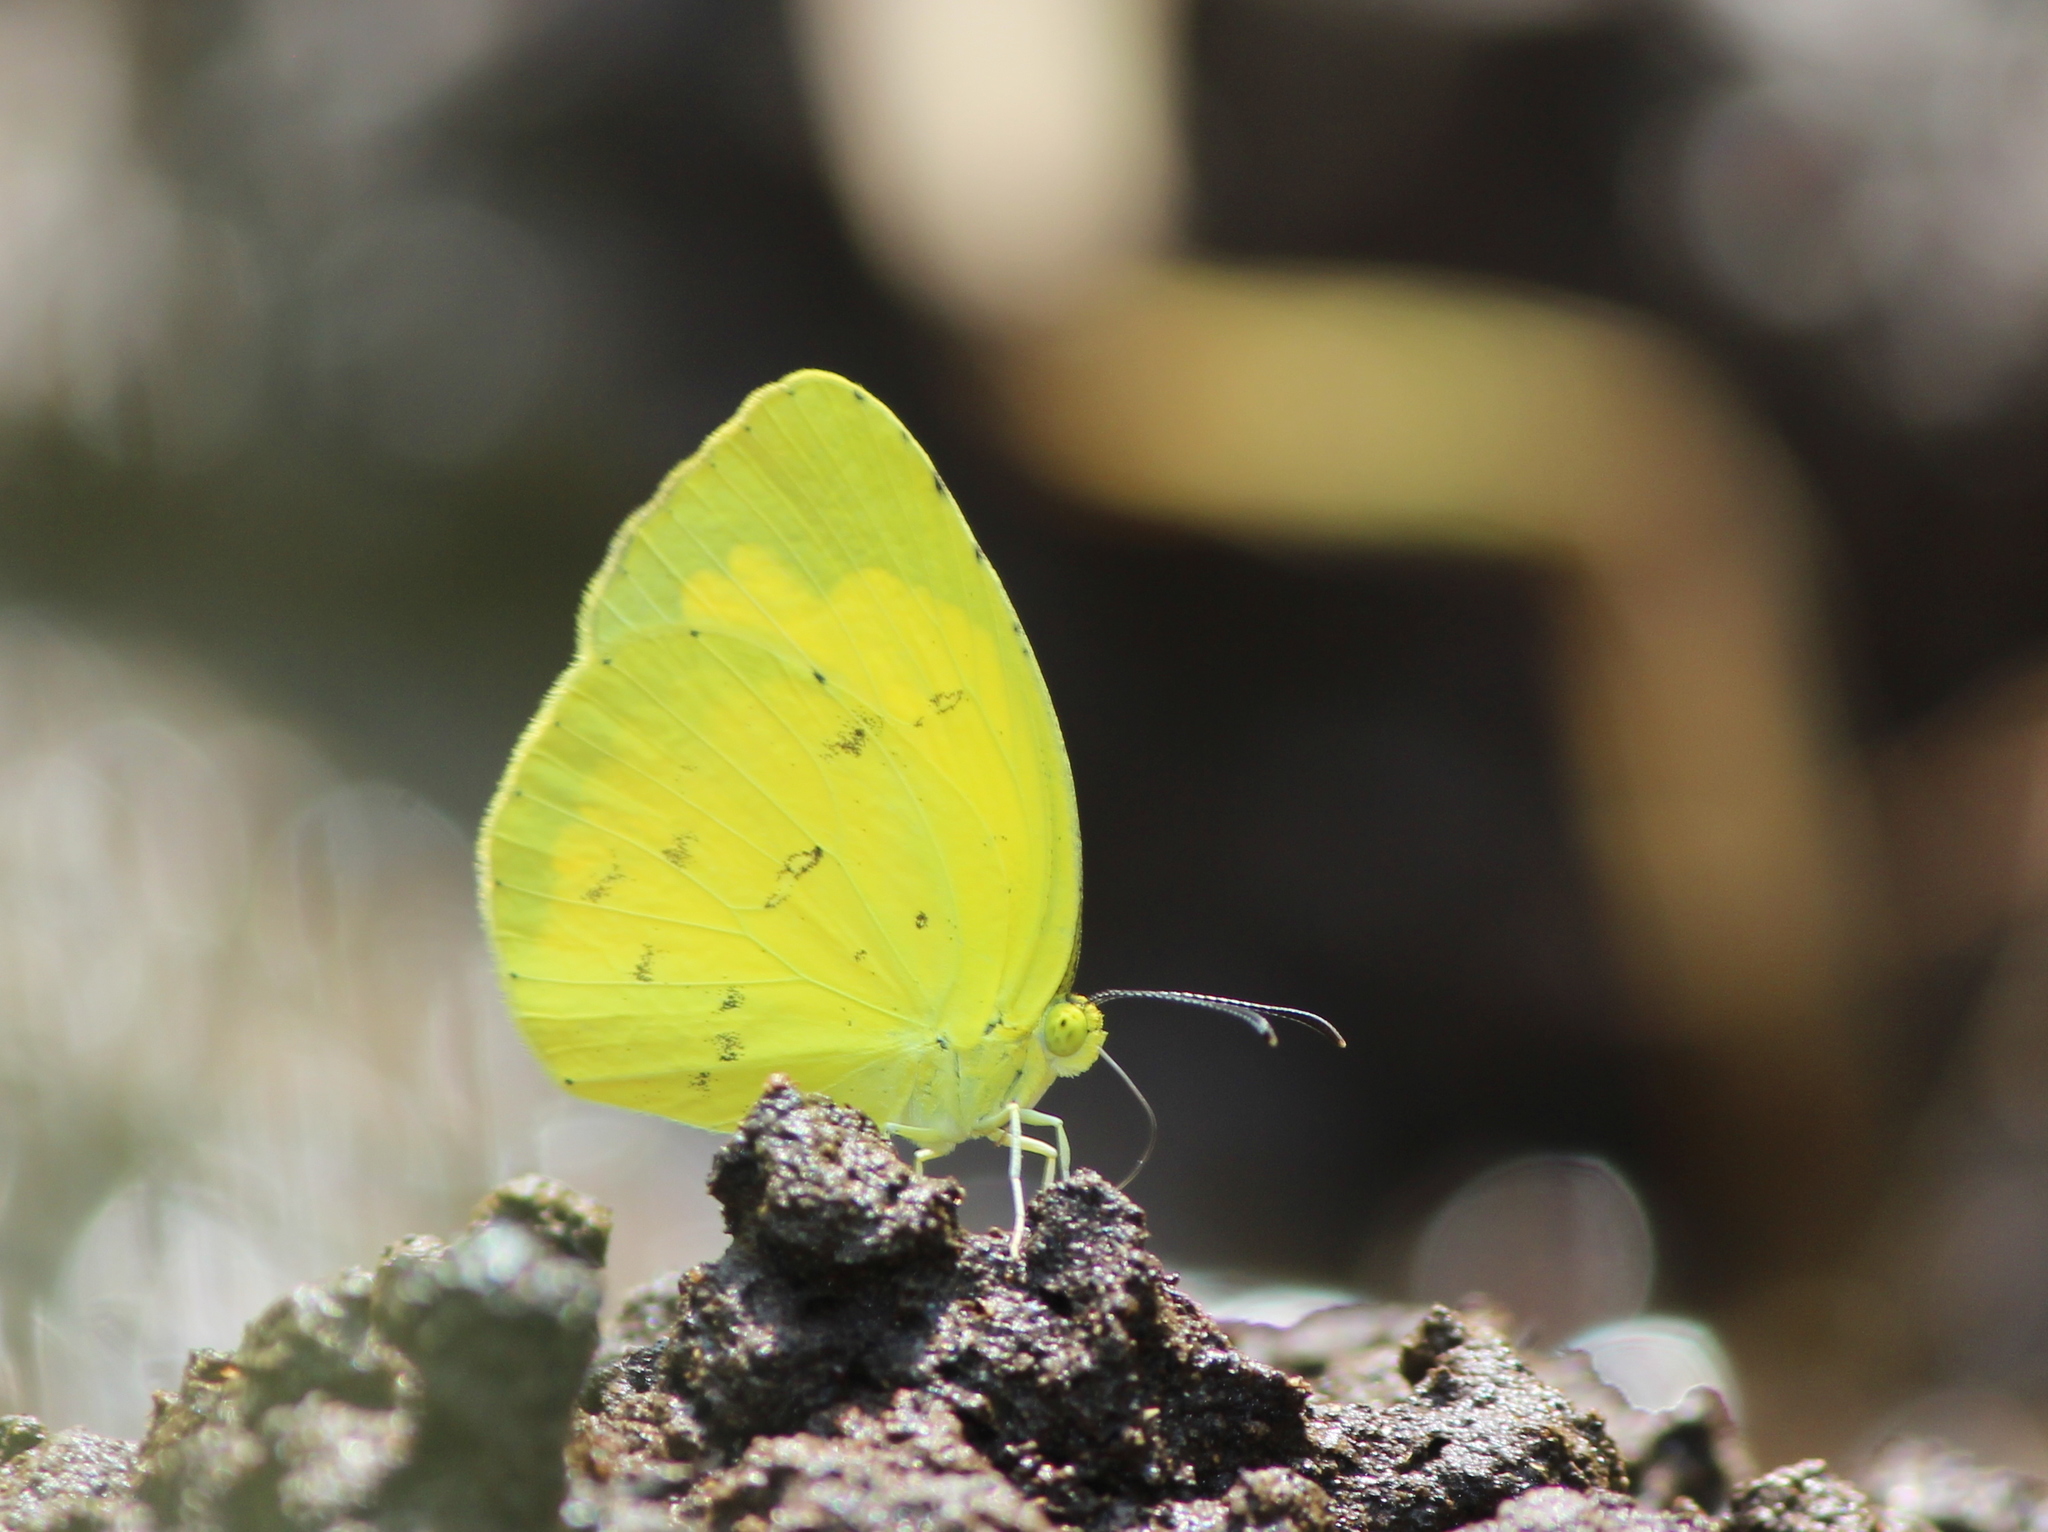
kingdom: Animalia
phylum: Arthropoda
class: Insecta
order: Lepidoptera
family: Pieridae
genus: Eurema
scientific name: Eurema hecabe
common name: Pale grass yellow
